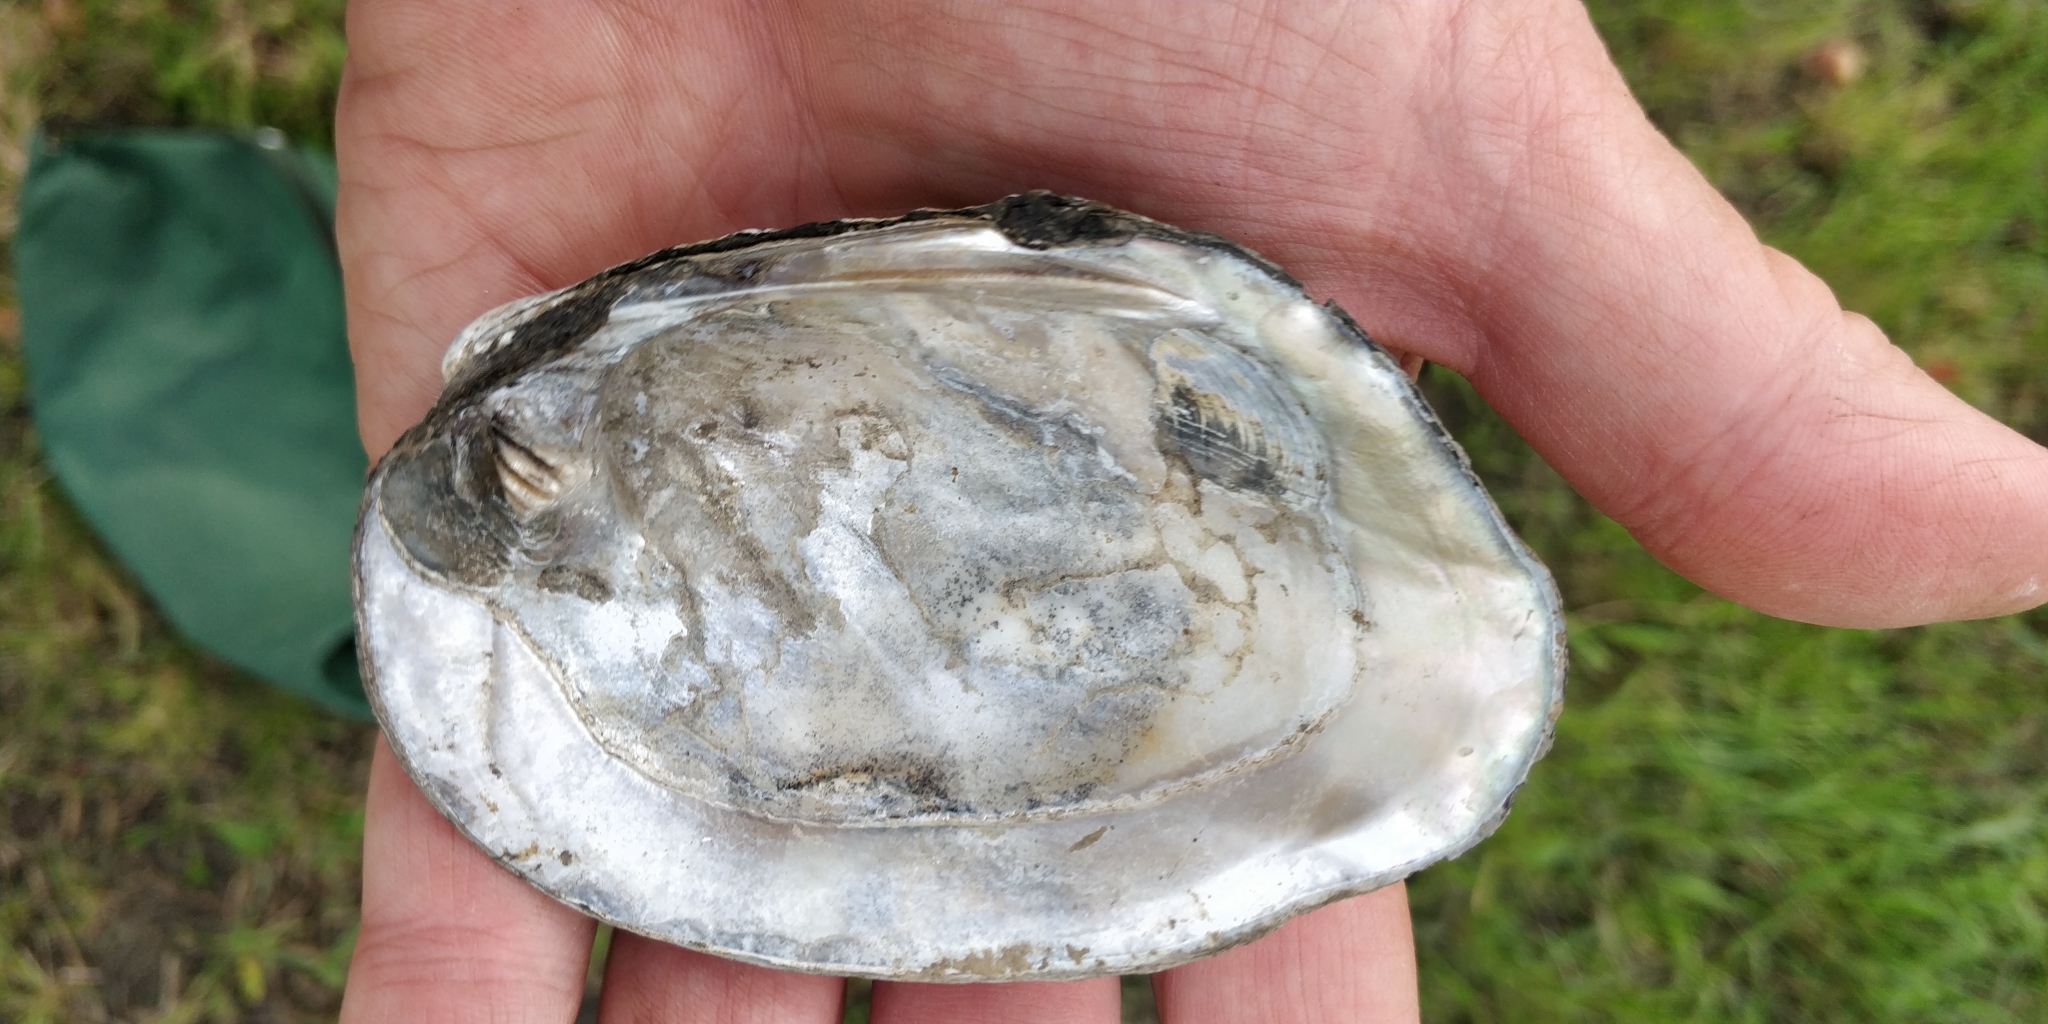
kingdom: Animalia
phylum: Mollusca
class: Bivalvia
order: Unionida
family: Unionidae
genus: Amblema
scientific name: Amblema plicata
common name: Threeridge
